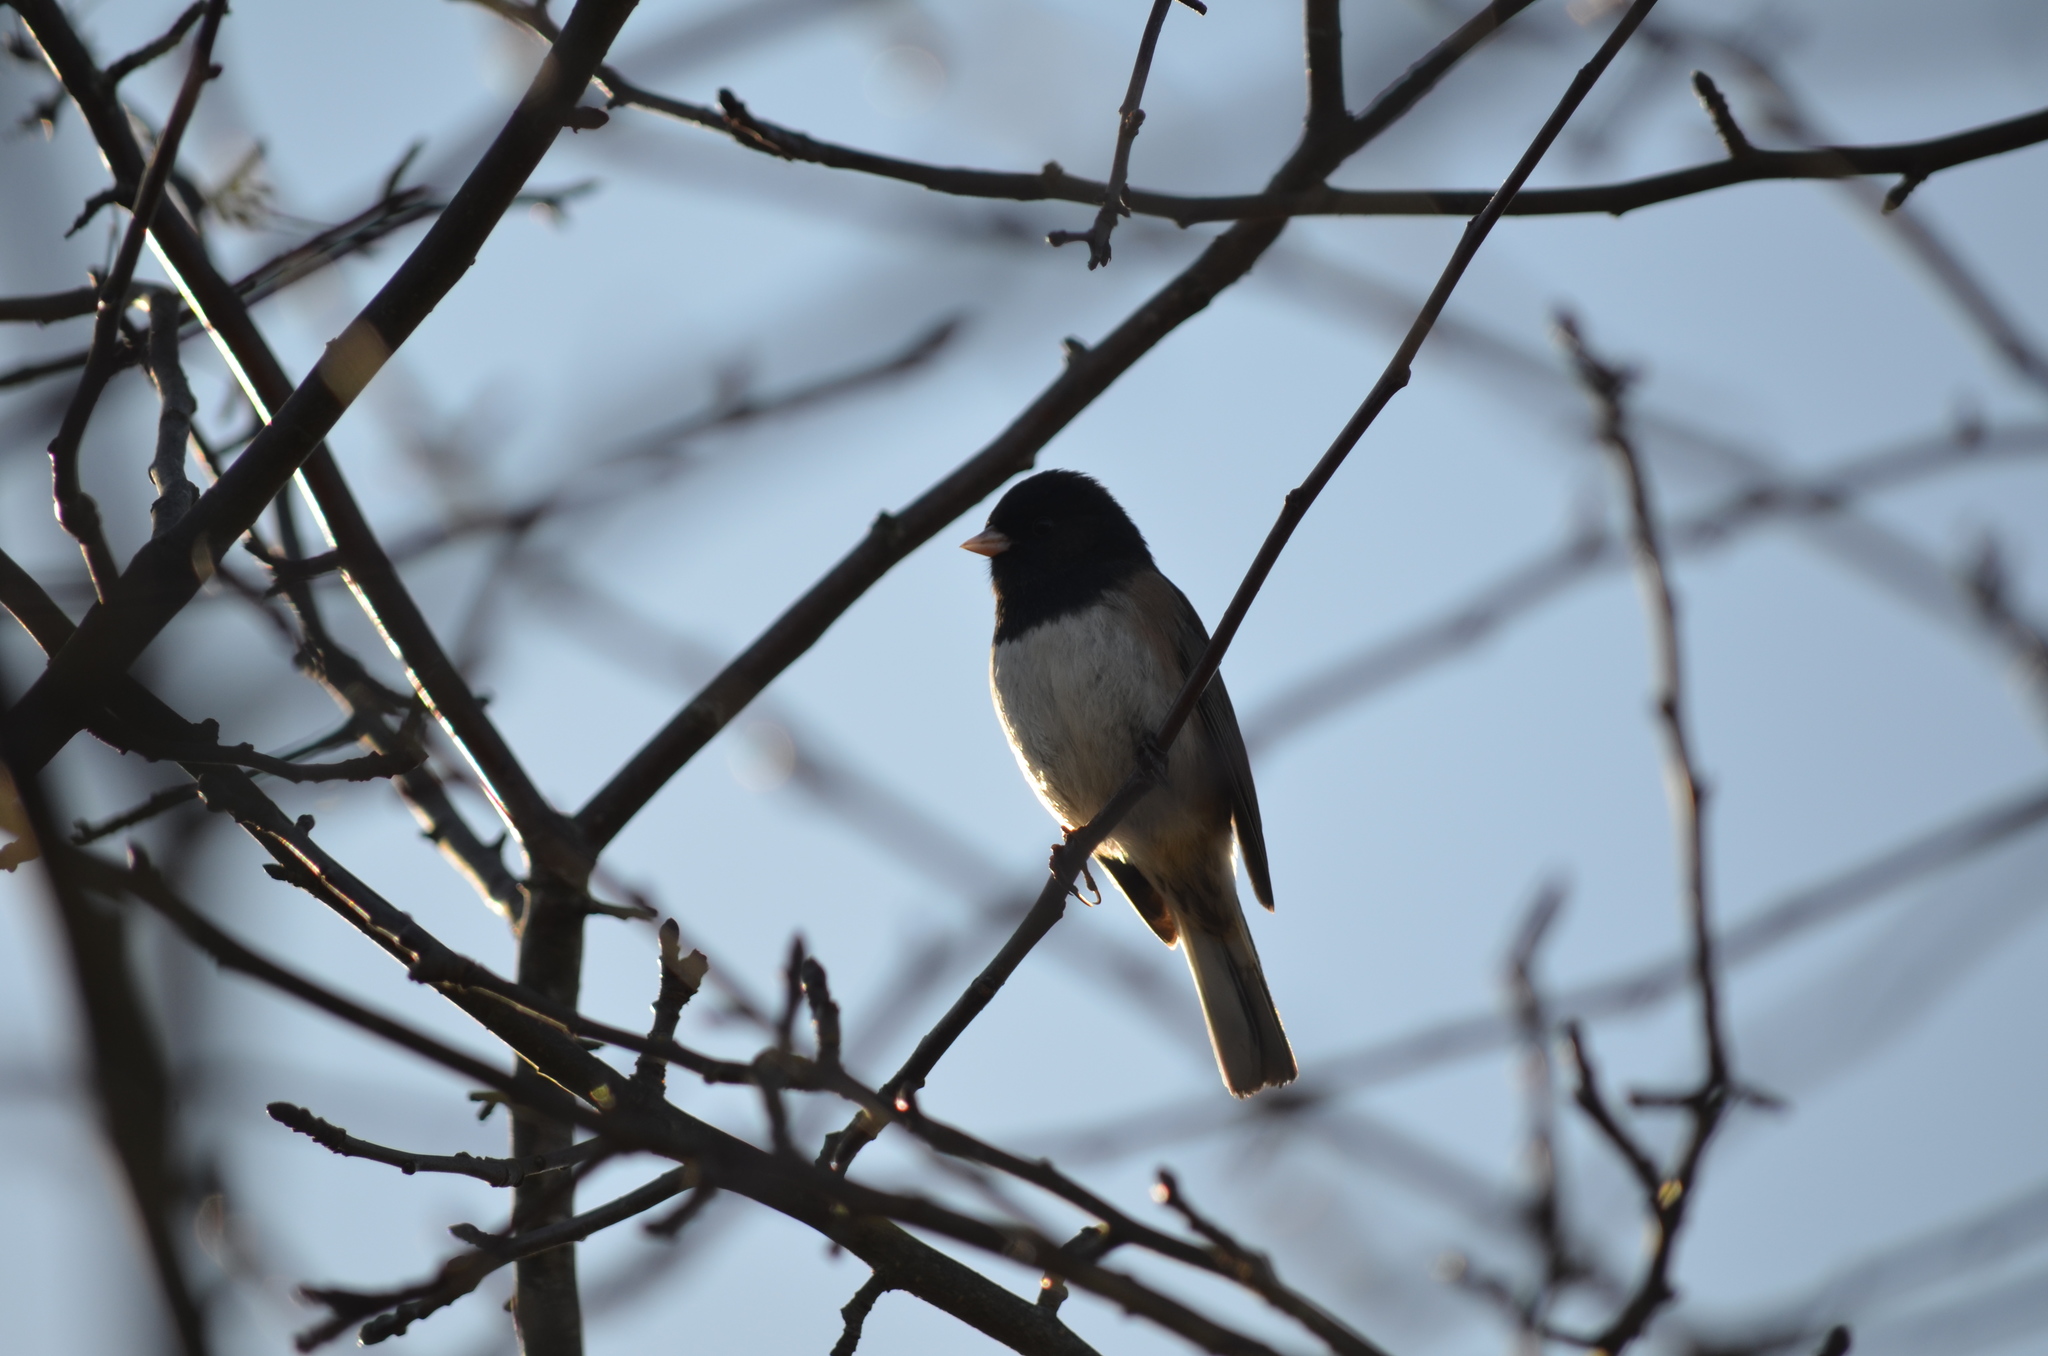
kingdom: Animalia
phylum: Chordata
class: Aves
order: Passeriformes
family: Passerellidae
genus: Junco
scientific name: Junco hyemalis
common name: Dark-eyed junco
